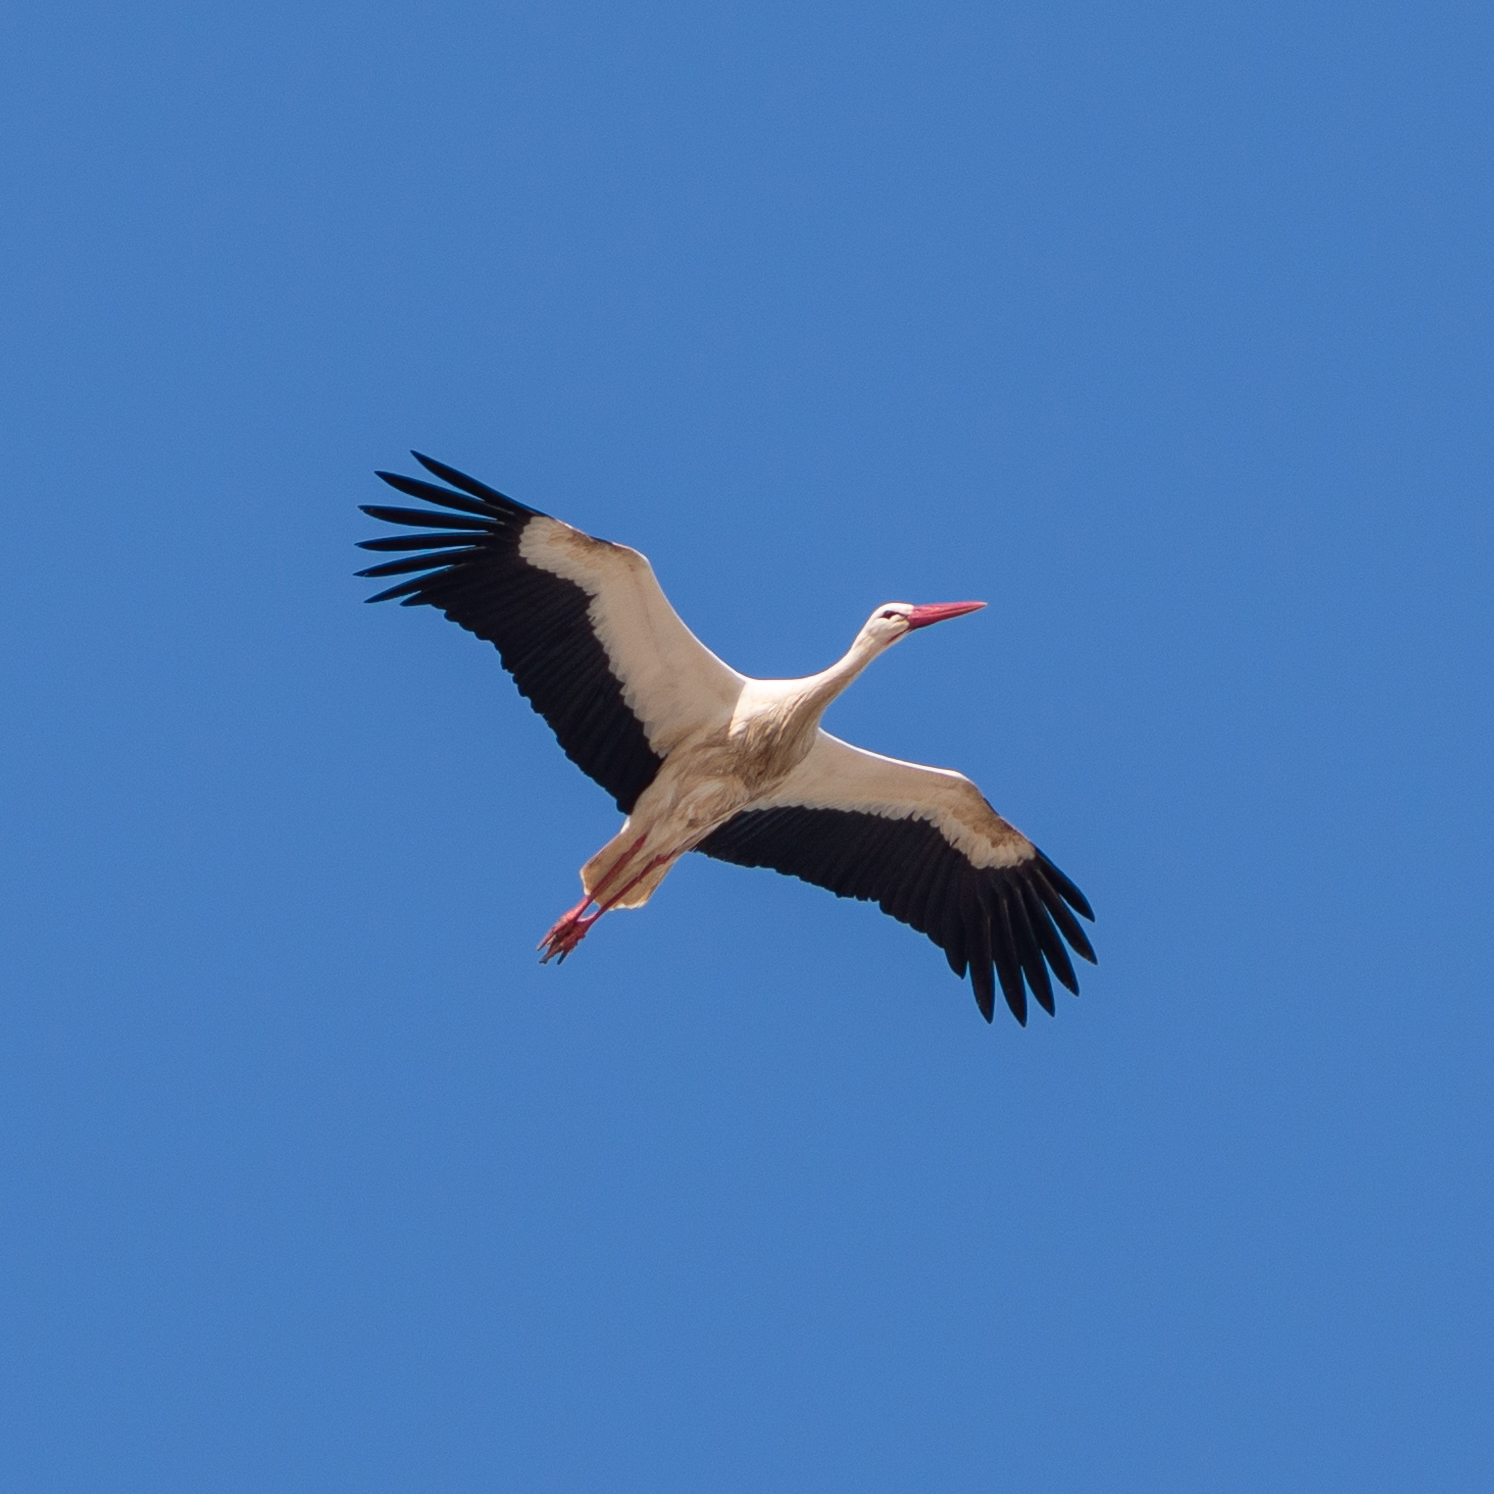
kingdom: Animalia
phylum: Chordata
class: Aves
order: Ciconiiformes
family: Ciconiidae
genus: Ciconia
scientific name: Ciconia ciconia
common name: White stork
